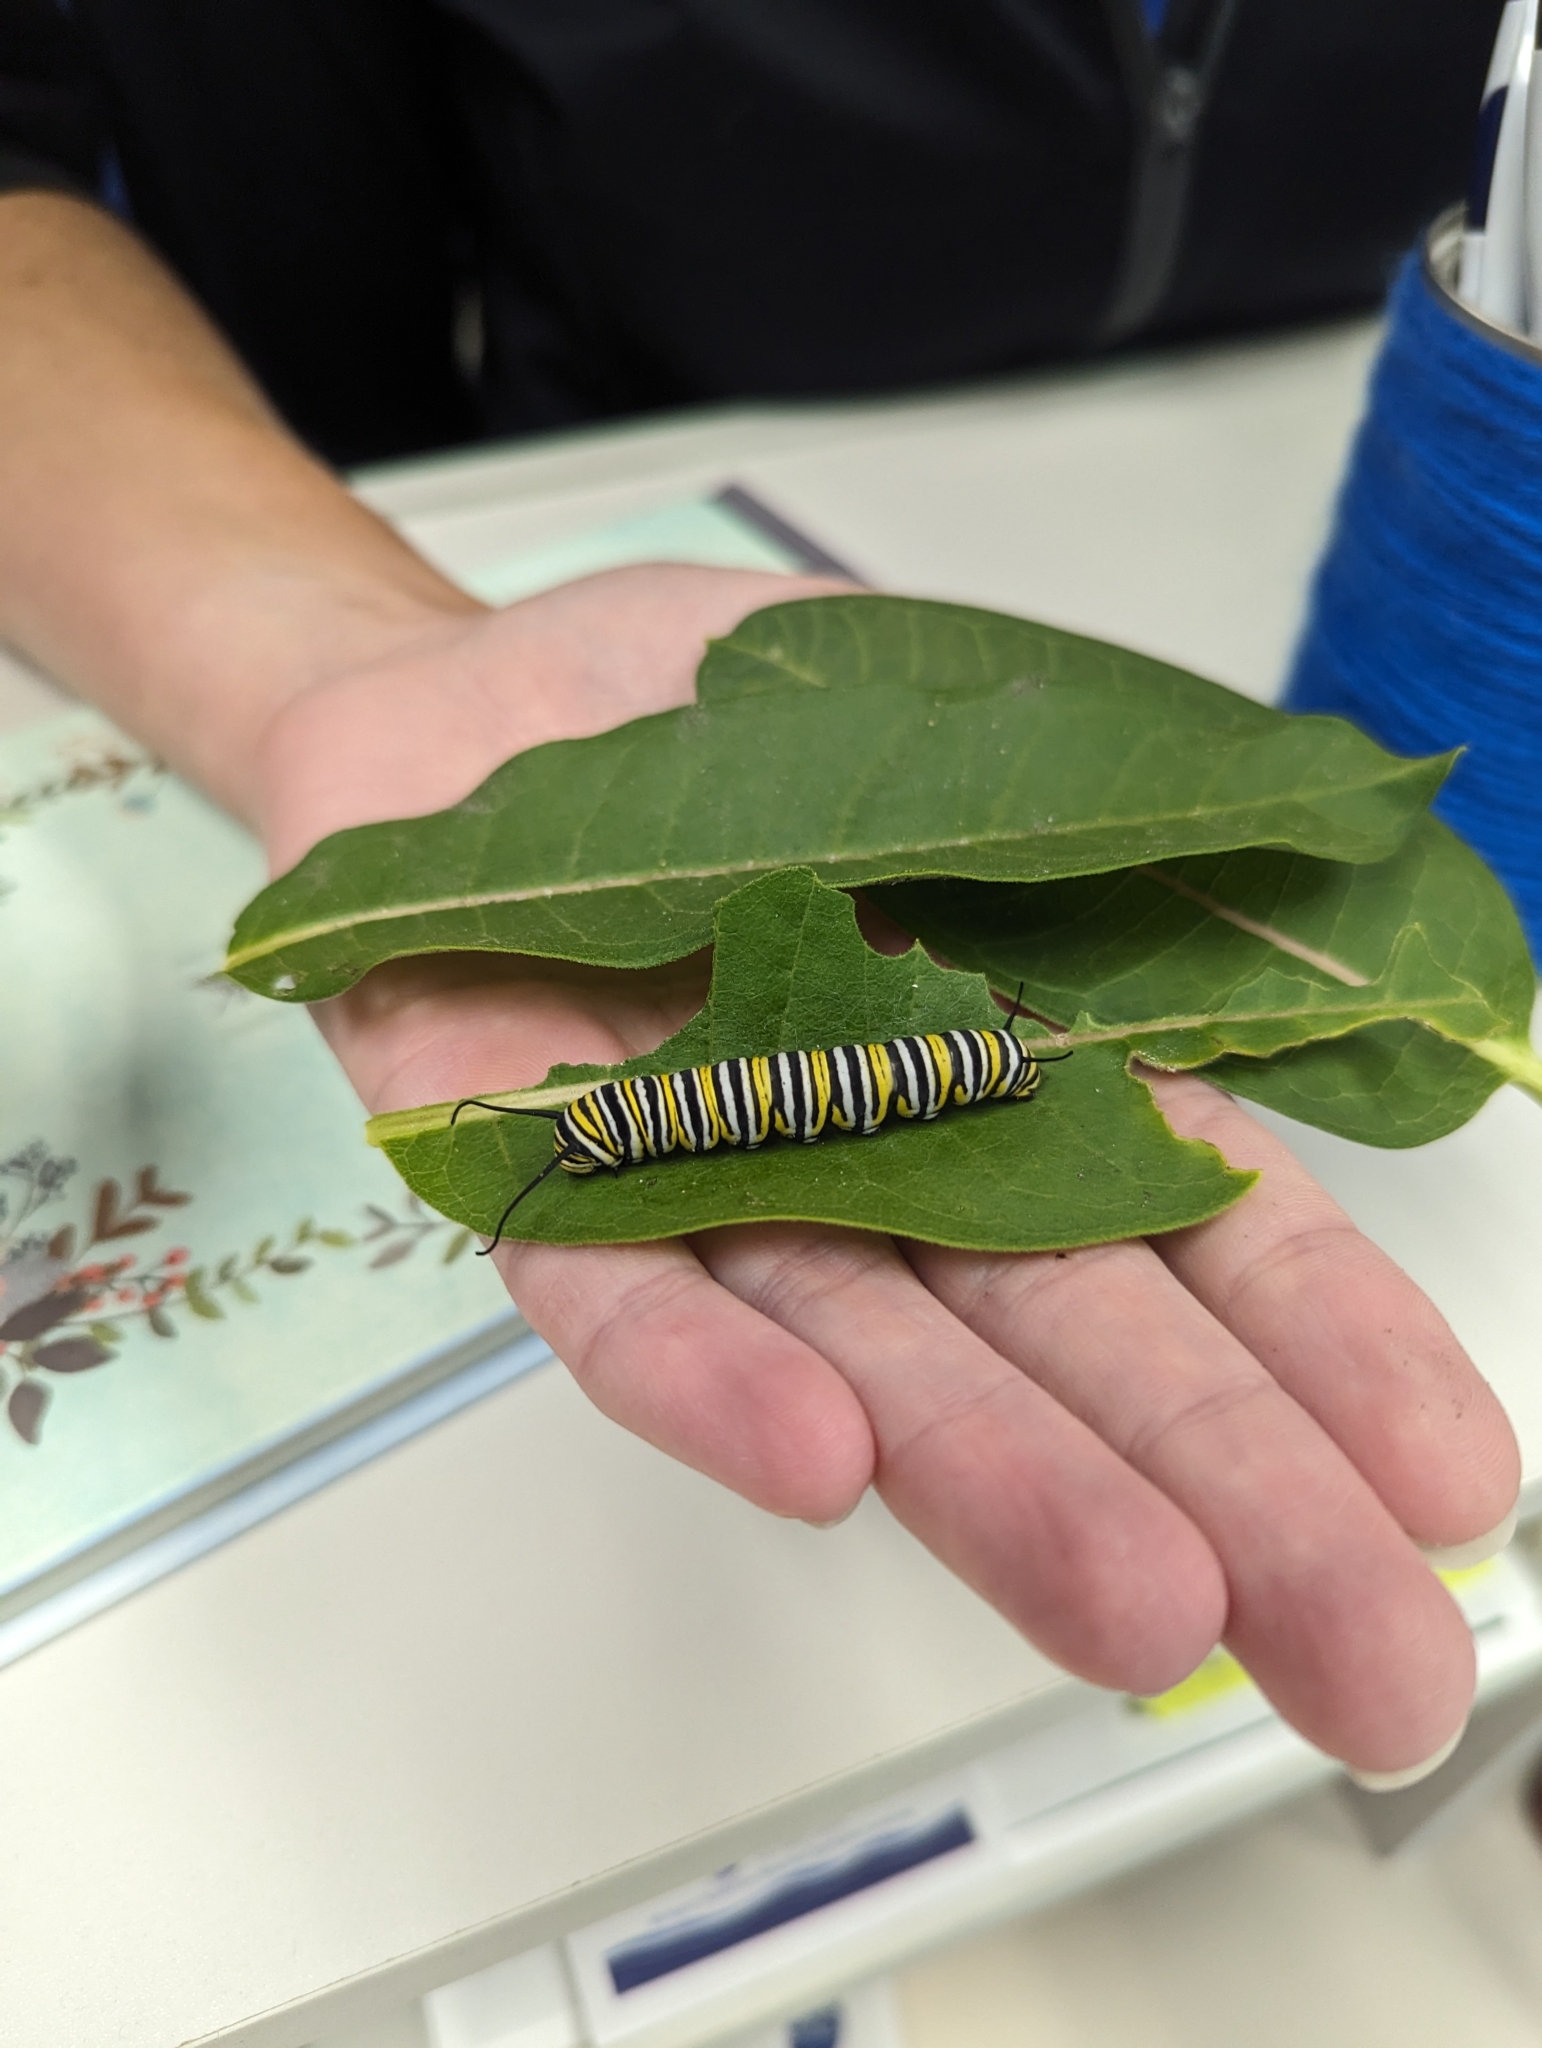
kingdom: Animalia
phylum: Arthropoda
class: Insecta
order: Lepidoptera
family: Nymphalidae
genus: Danaus
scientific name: Danaus plexippus
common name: Monarch
